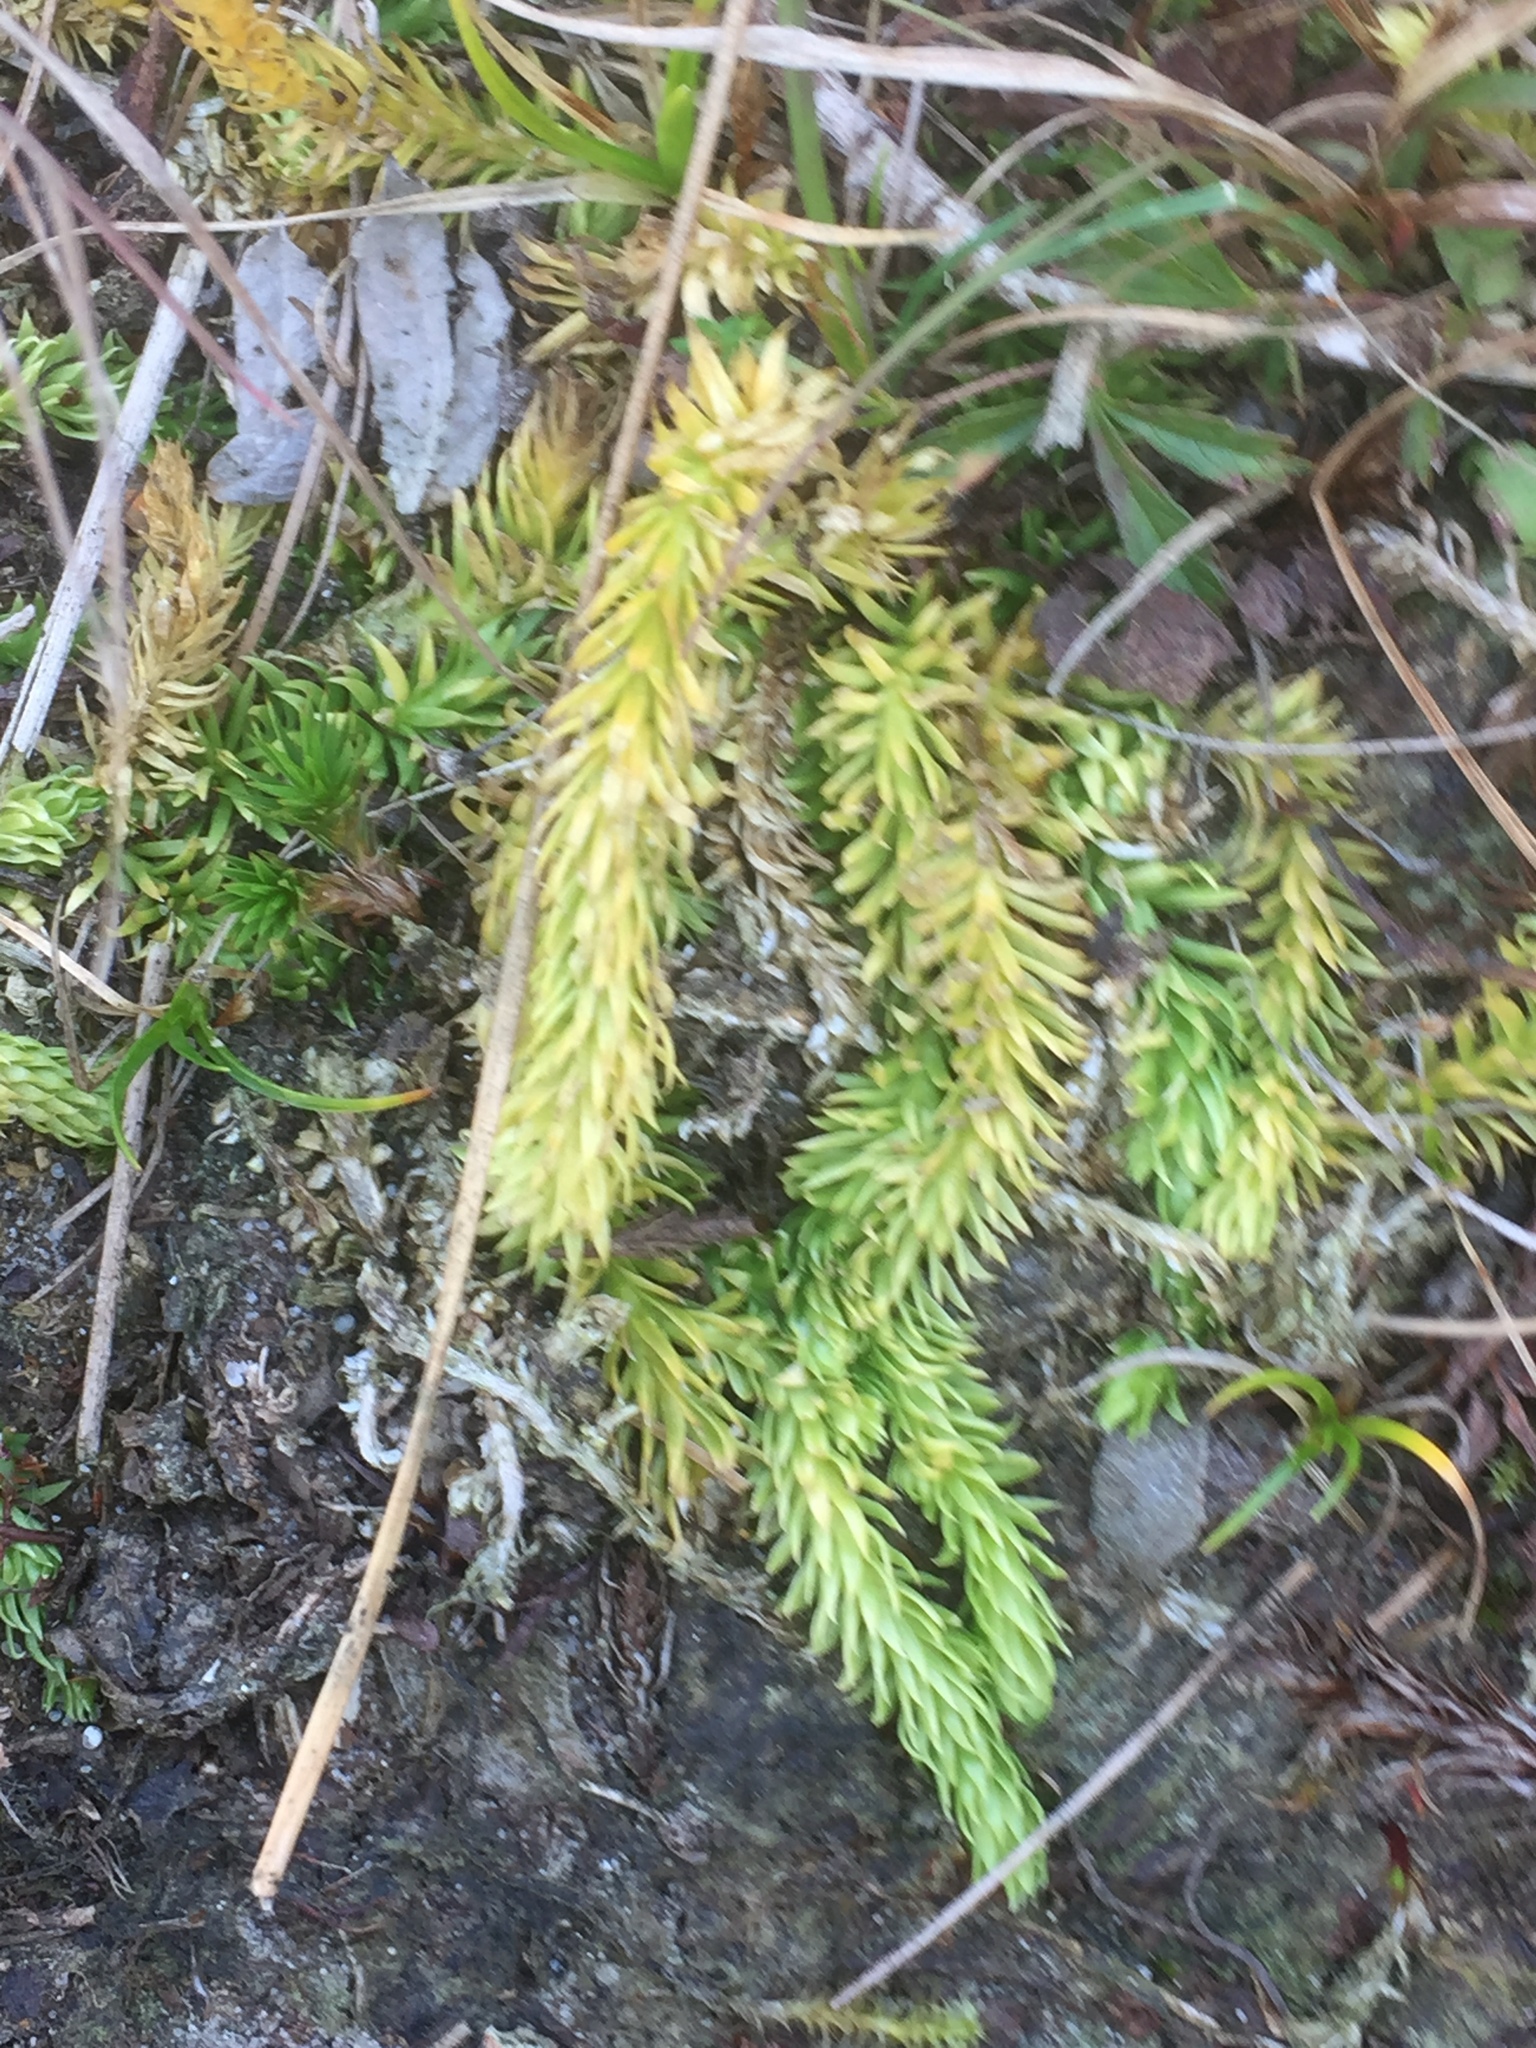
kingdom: Plantae
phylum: Tracheophyta
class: Lycopodiopsida
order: Lycopodiales
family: Lycopodiaceae
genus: Lycopodiella
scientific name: Lycopodiella inundata
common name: Marsh clubmoss
